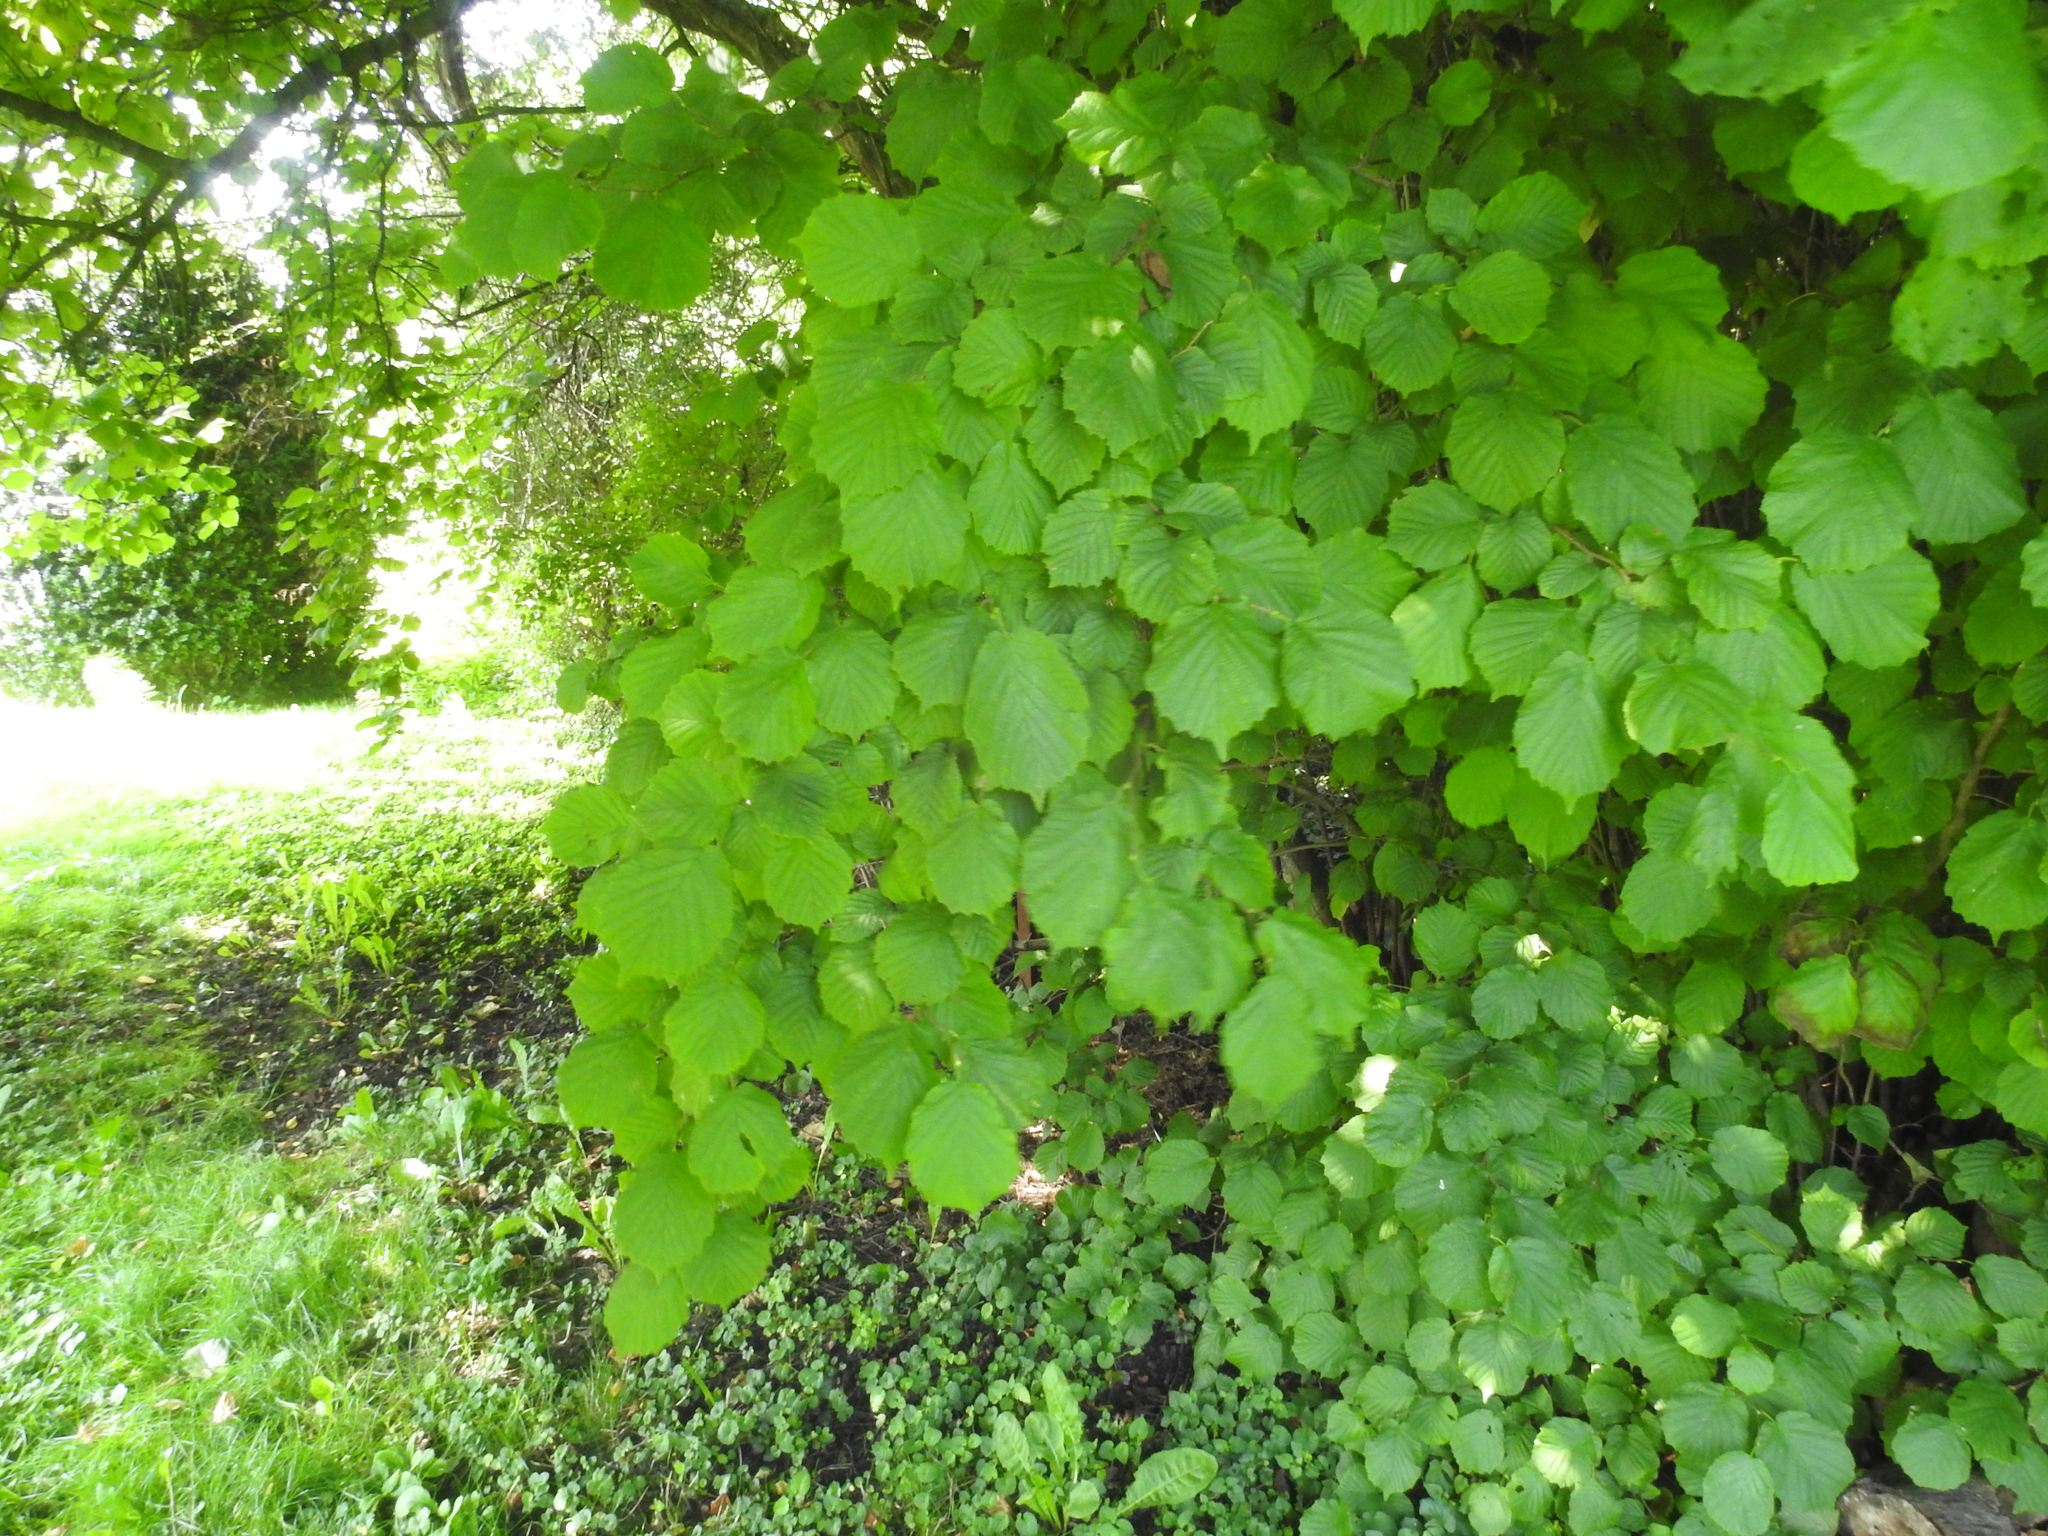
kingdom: Plantae
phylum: Tracheophyta
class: Magnoliopsida
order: Fagales
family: Betulaceae
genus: Corylus
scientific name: Corylus avellana
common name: European hazel
